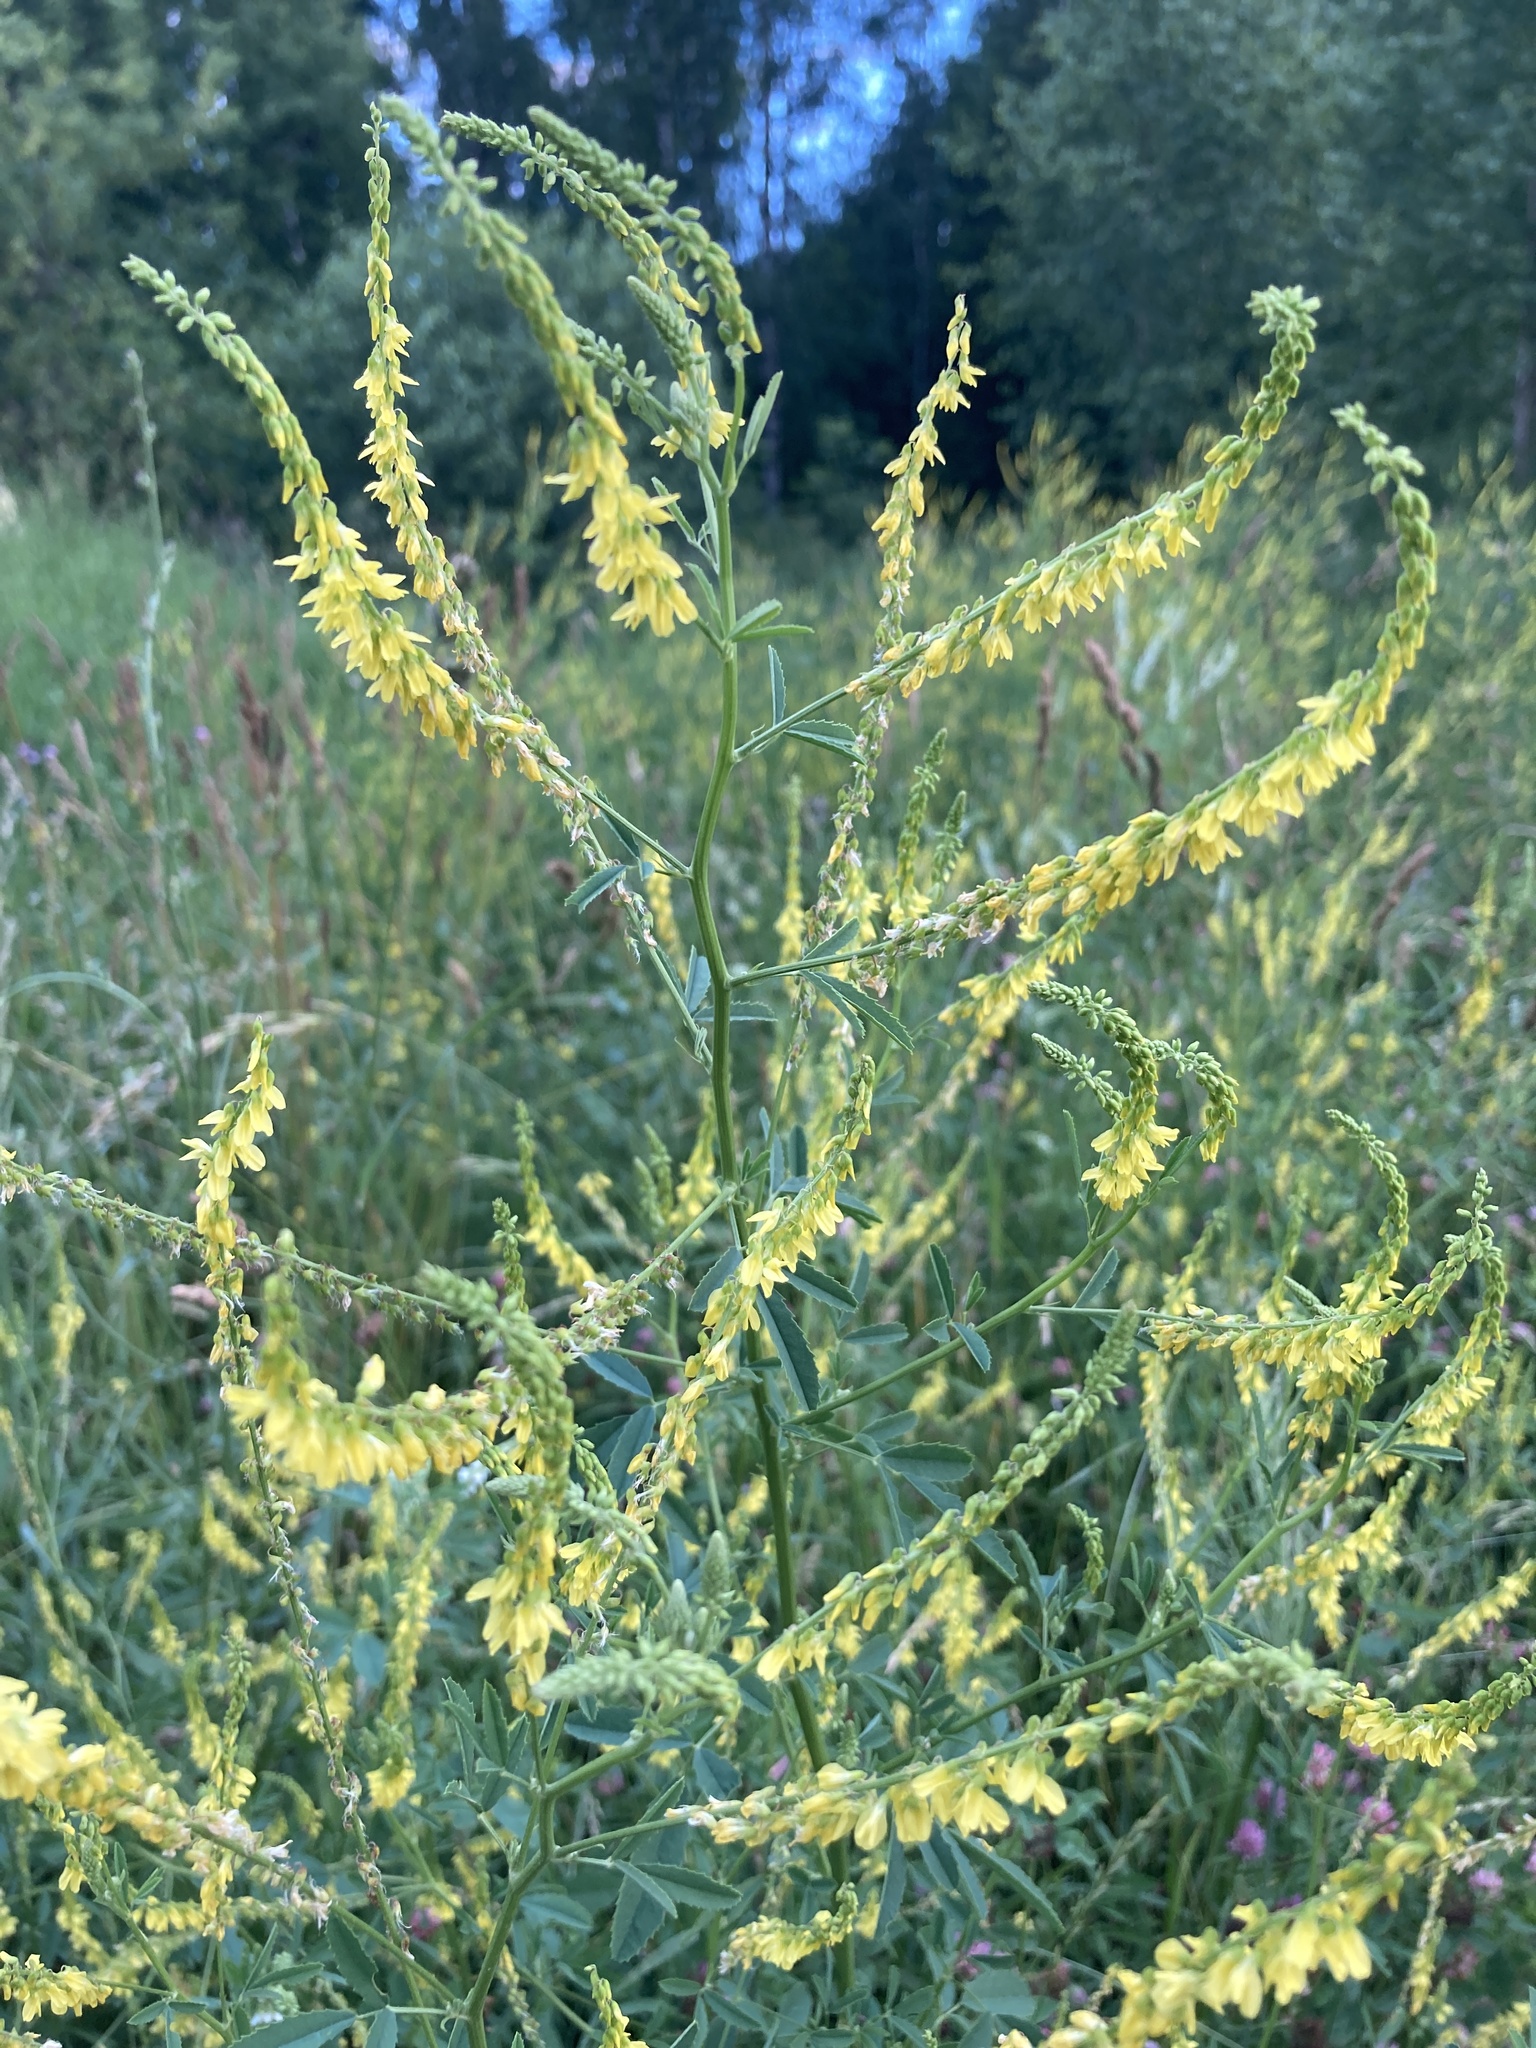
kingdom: Plantae
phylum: Tracheophyta
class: Magnoliopsida
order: Fabales
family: Fabaceae
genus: Melilotus
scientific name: Melilotus officinalis
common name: Sweetclover
